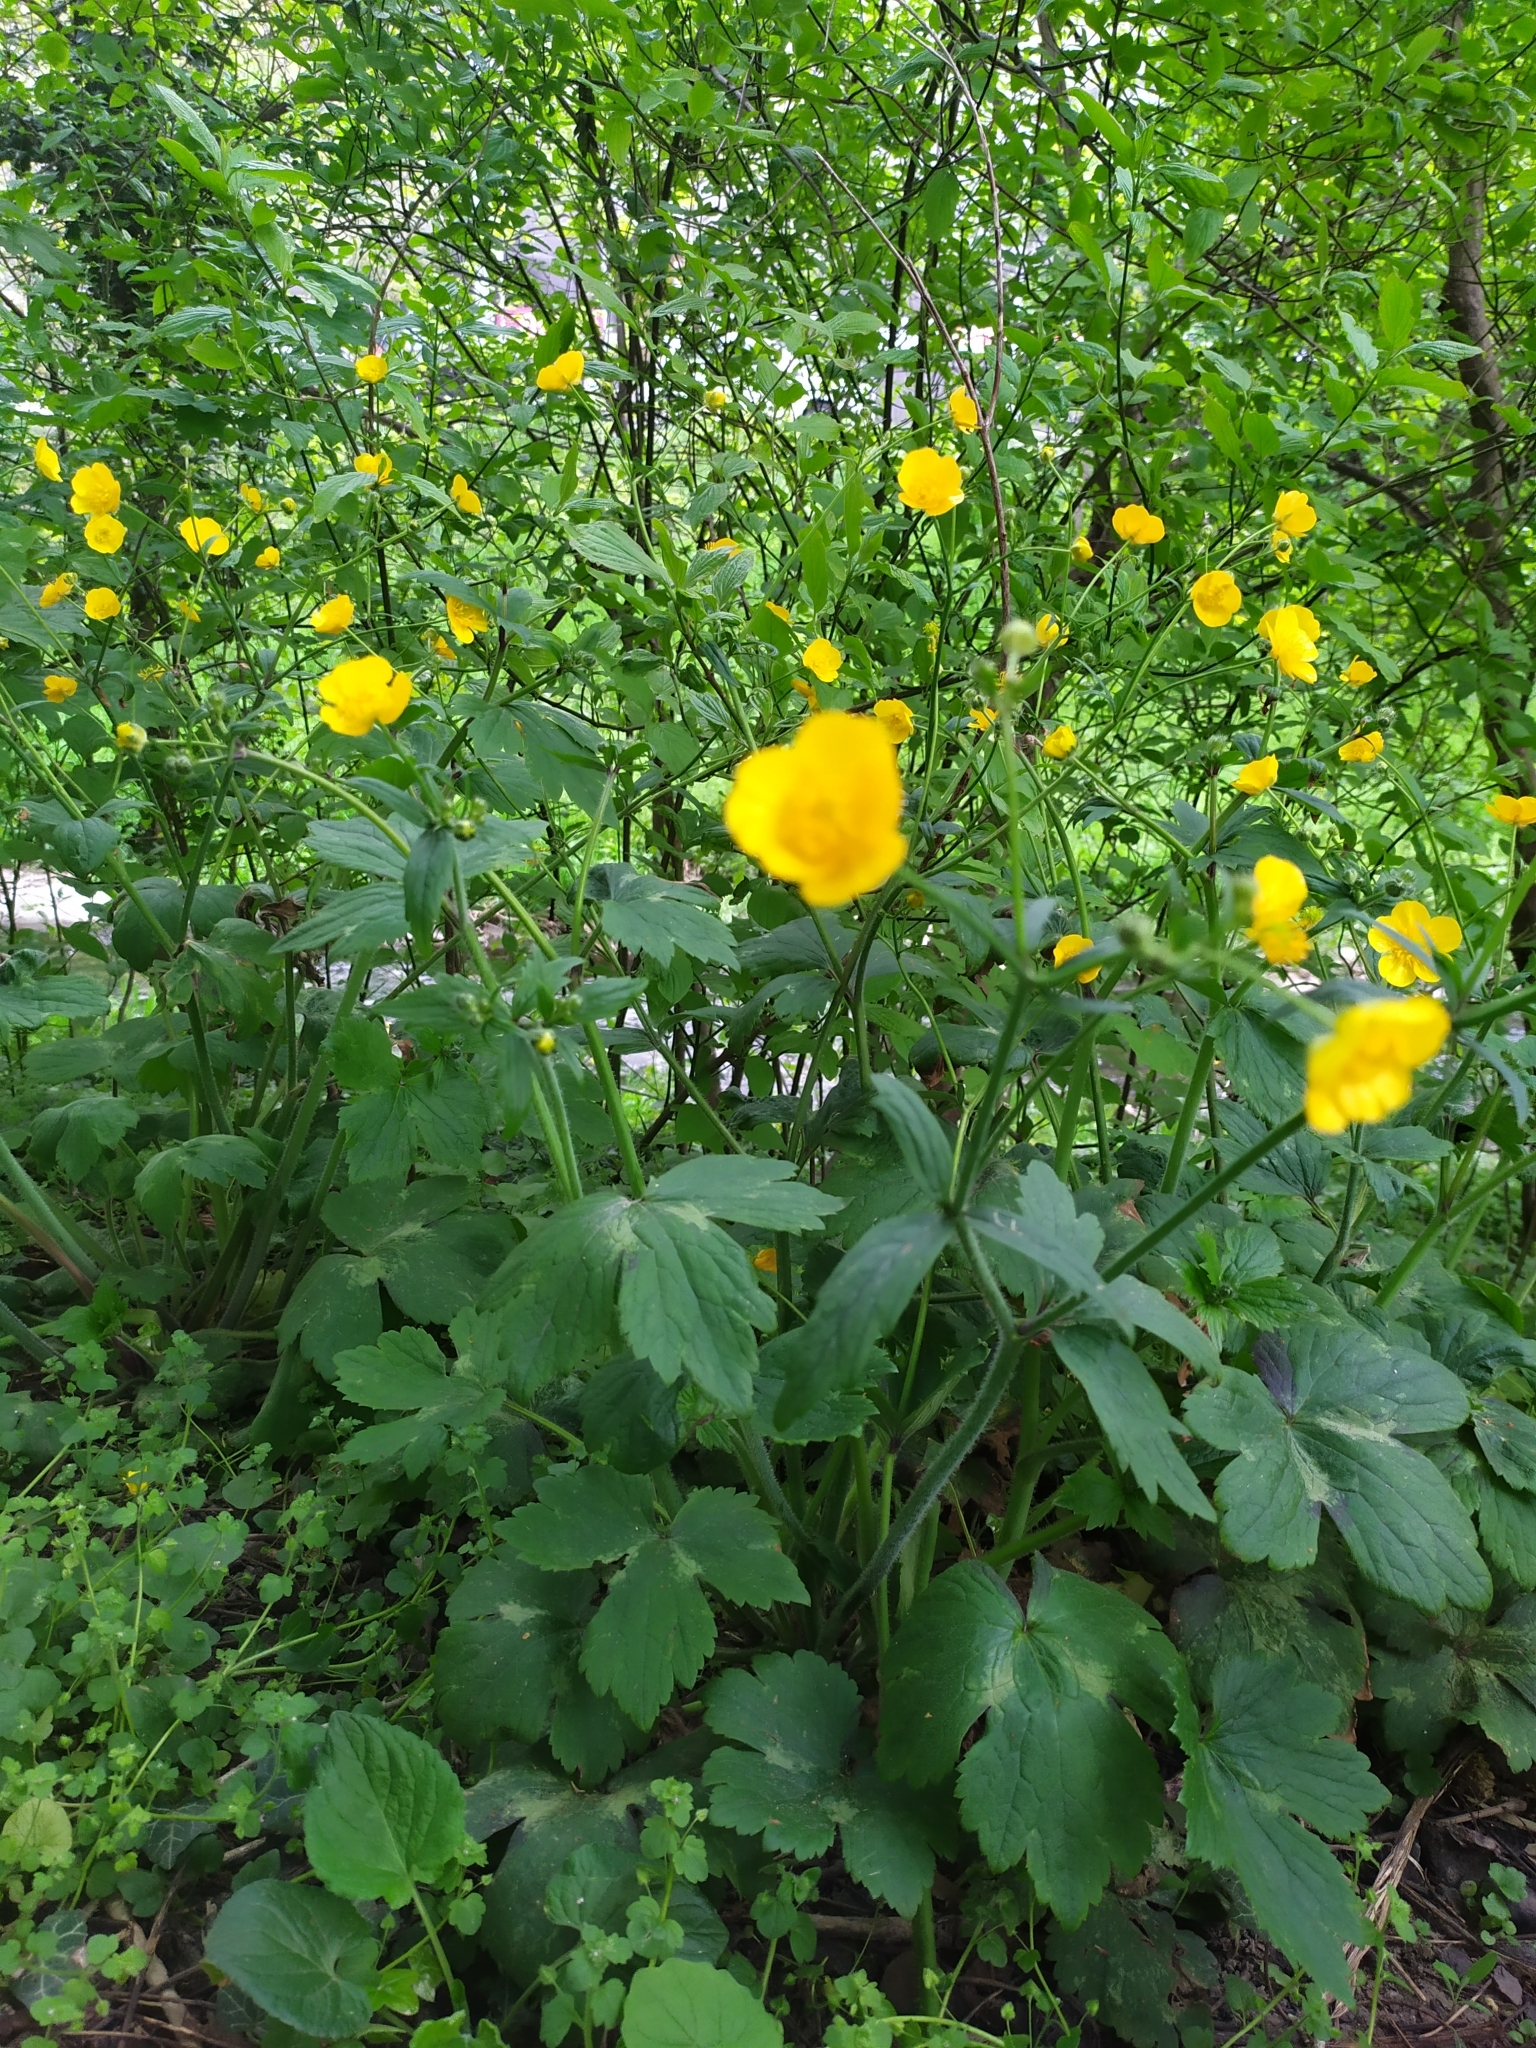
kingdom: Plantae
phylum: Tracheophyta
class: Magnoliopsida
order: Ranunculales
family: Ranunculaceae
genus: Ranunculus
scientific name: Ranunculus lanuginosus
